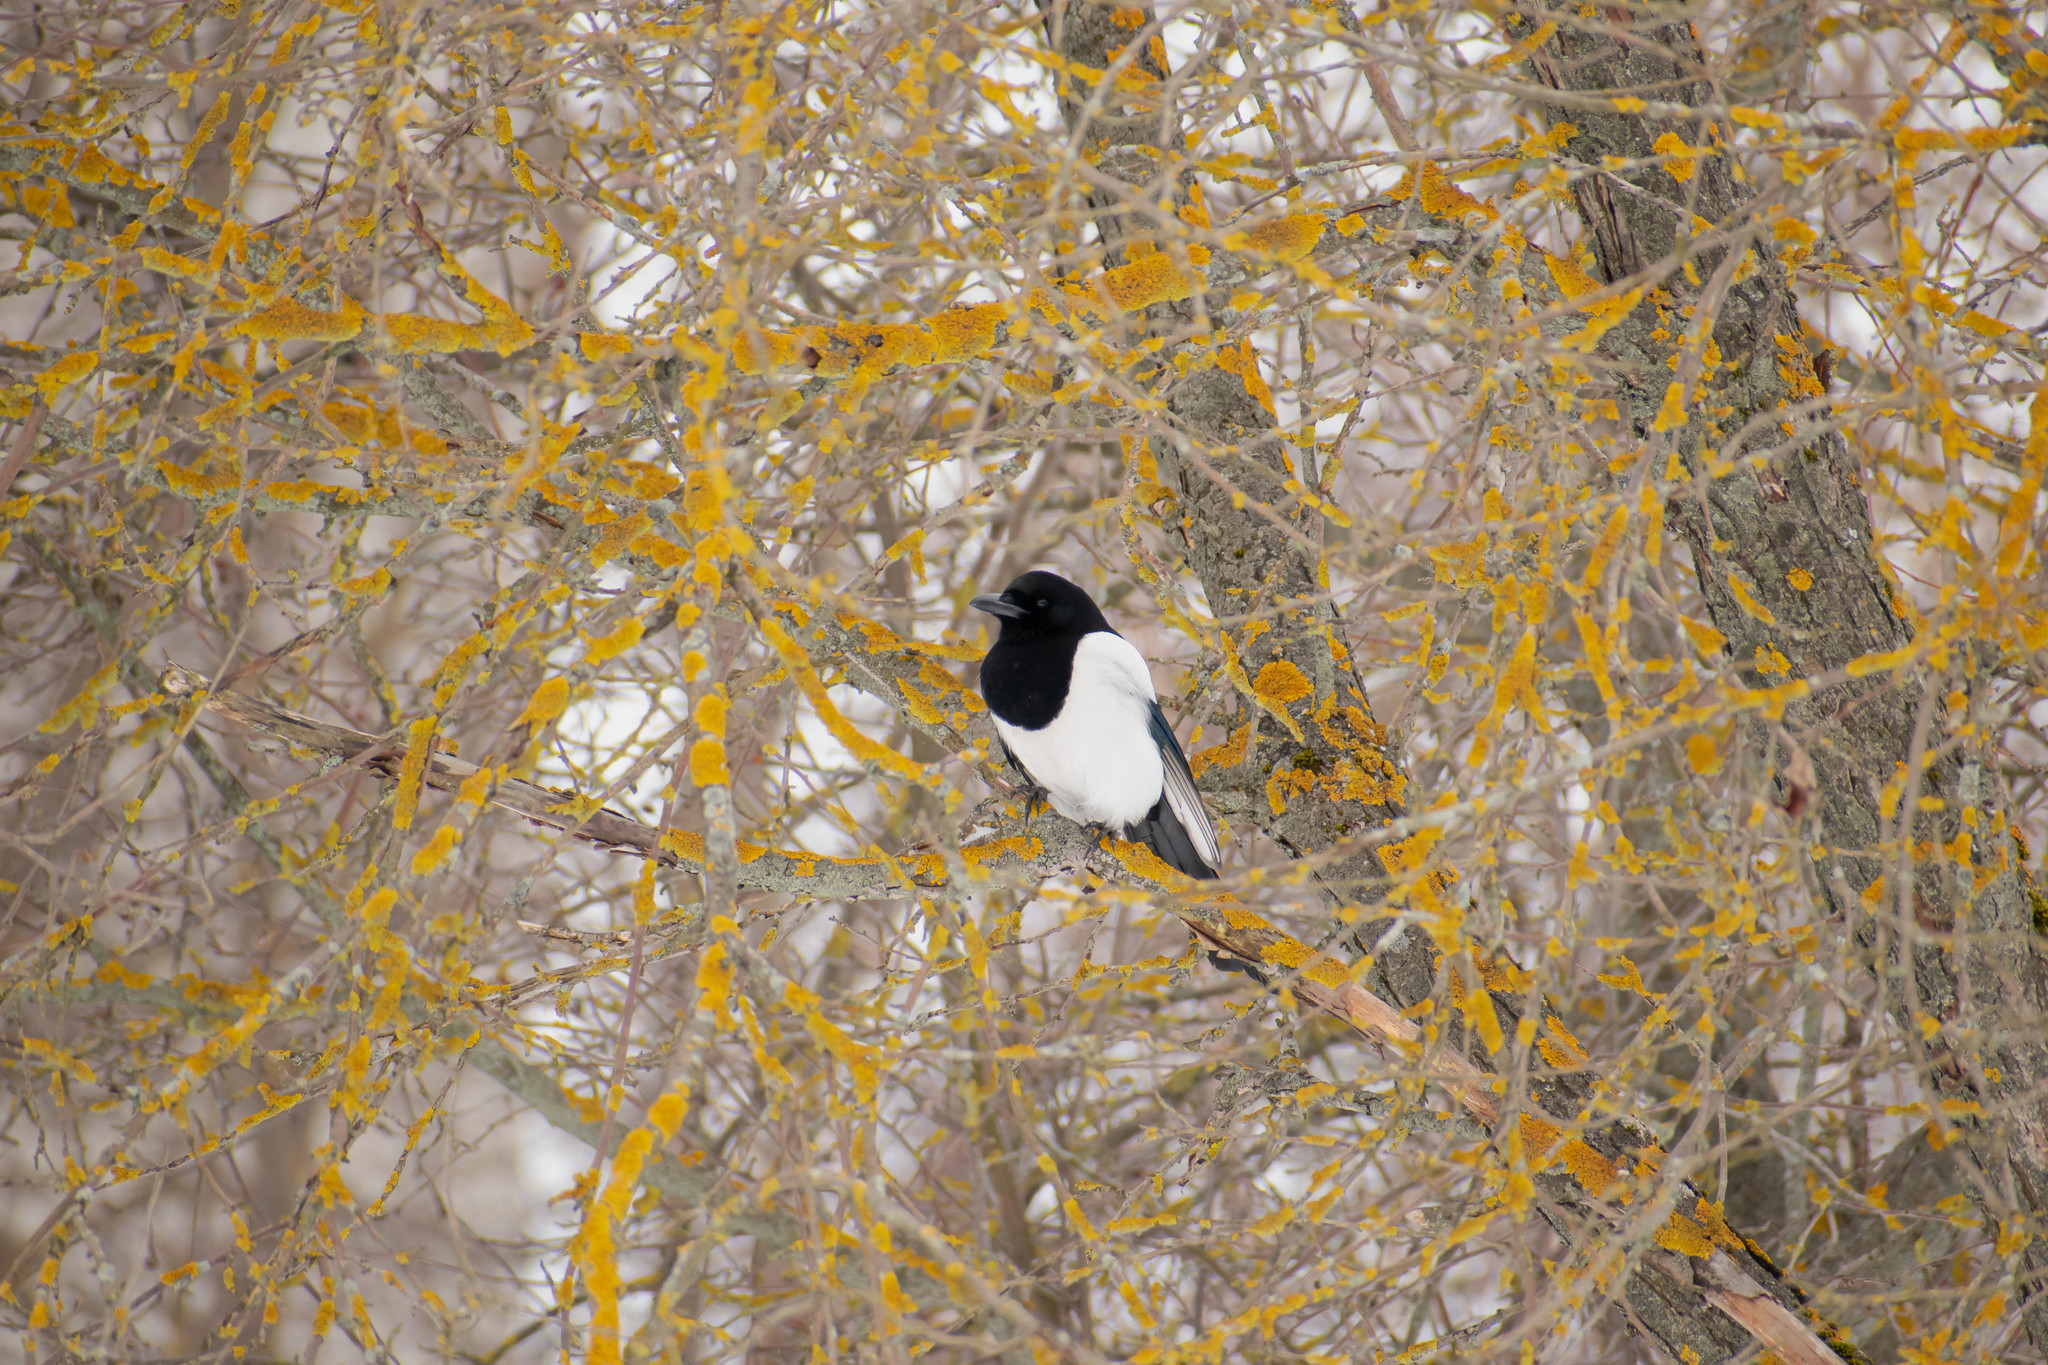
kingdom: Animalia
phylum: Chordata
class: Aves
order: Passeriformes
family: Corvidae
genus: Pica
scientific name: Pica pica
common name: Eurasian magpie
